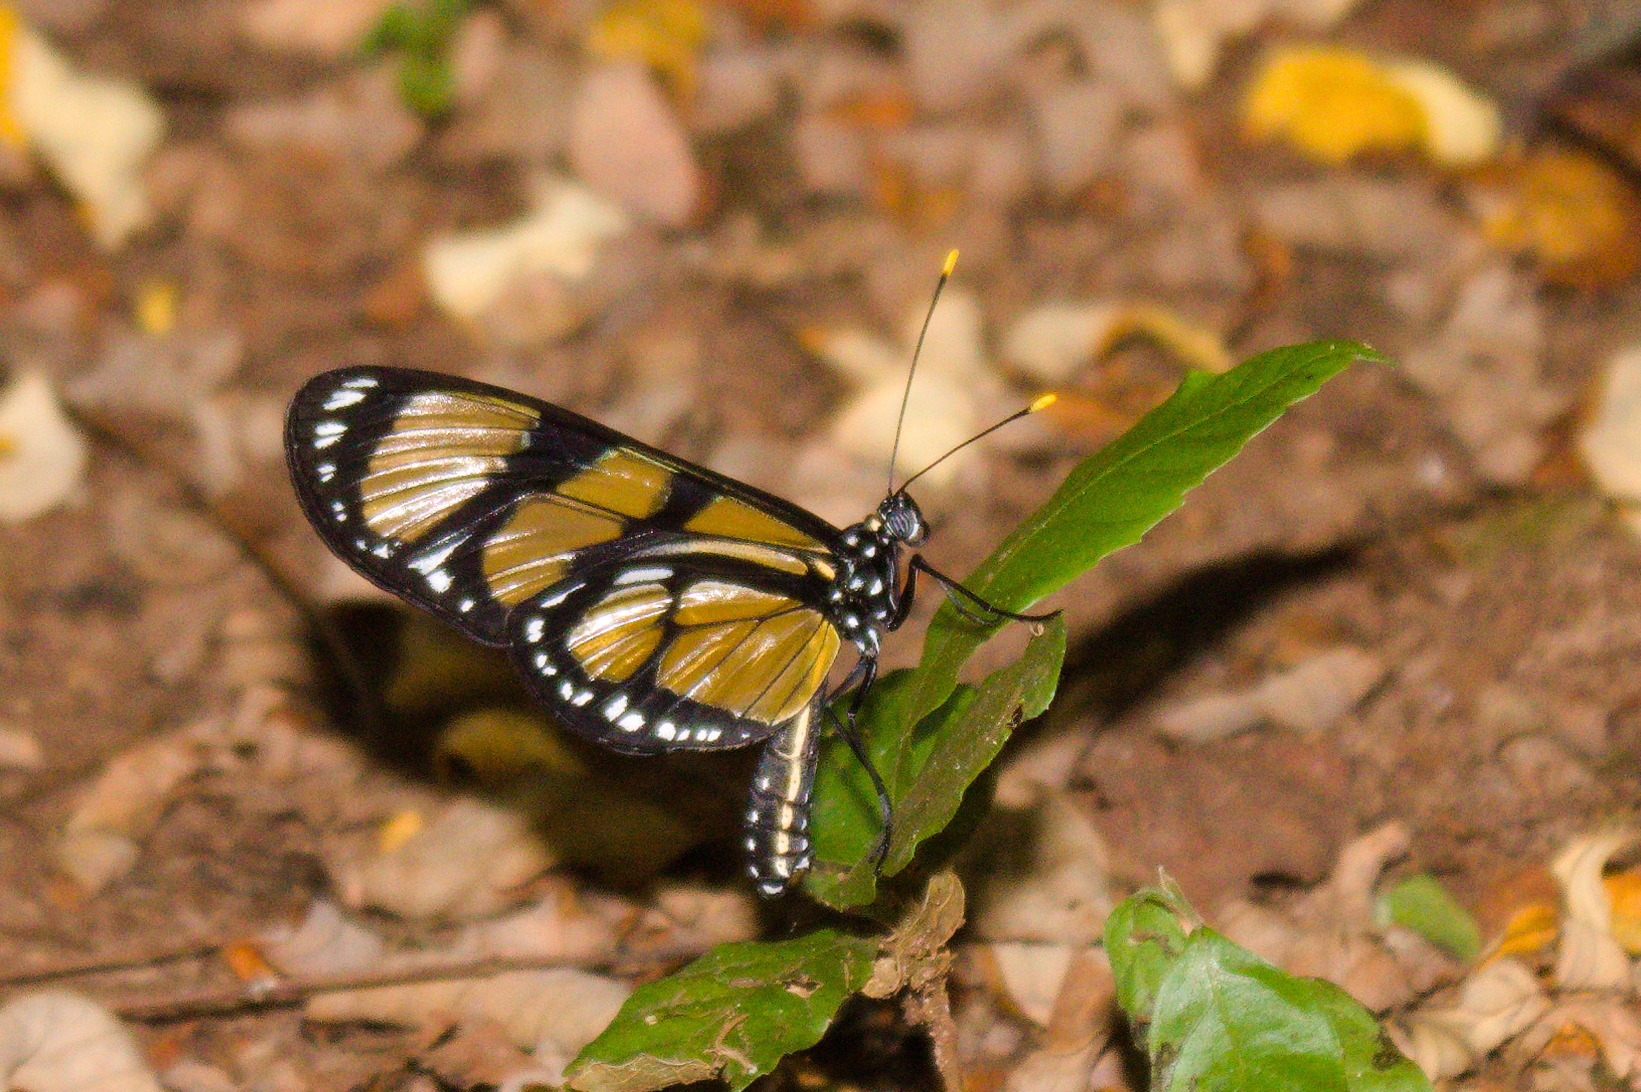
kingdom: Animalia
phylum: Arthropoda
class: Insecta
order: Lepidoptera
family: Nymphalidae
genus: Methona
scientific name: Methona themisto
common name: Themisto amberwing
